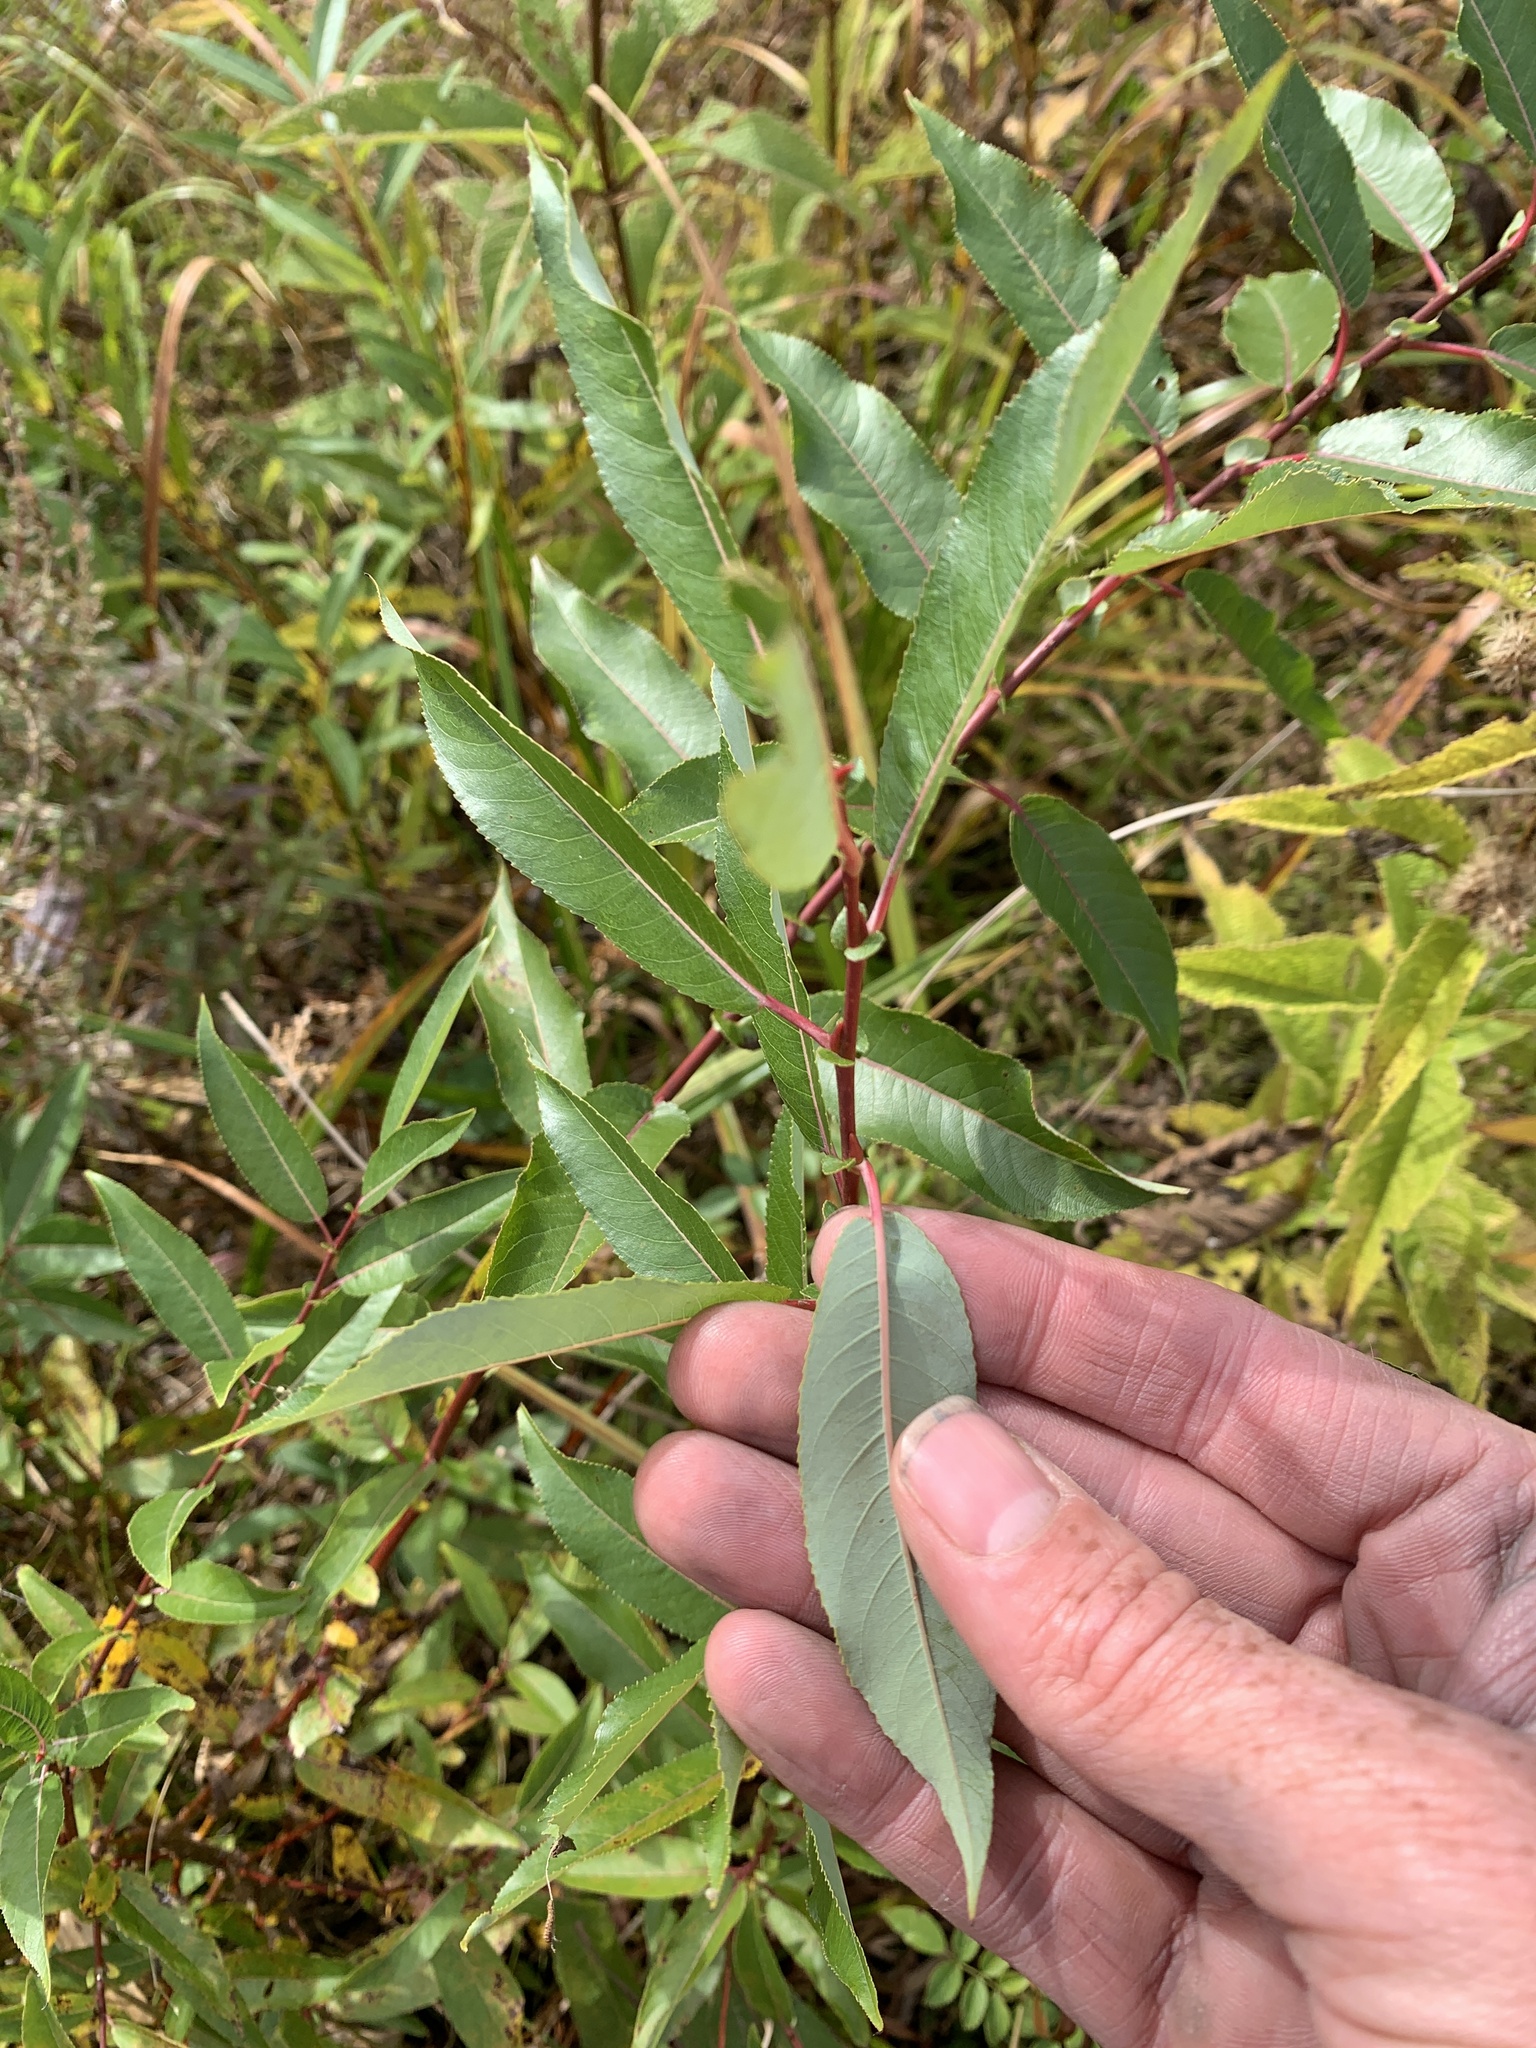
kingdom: Plantae
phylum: Tracheophyta
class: Magnoliopsida
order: Malpighiales
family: Salicaceae
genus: Salix
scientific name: Salix eriocephala
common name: Heart-leaved willow
